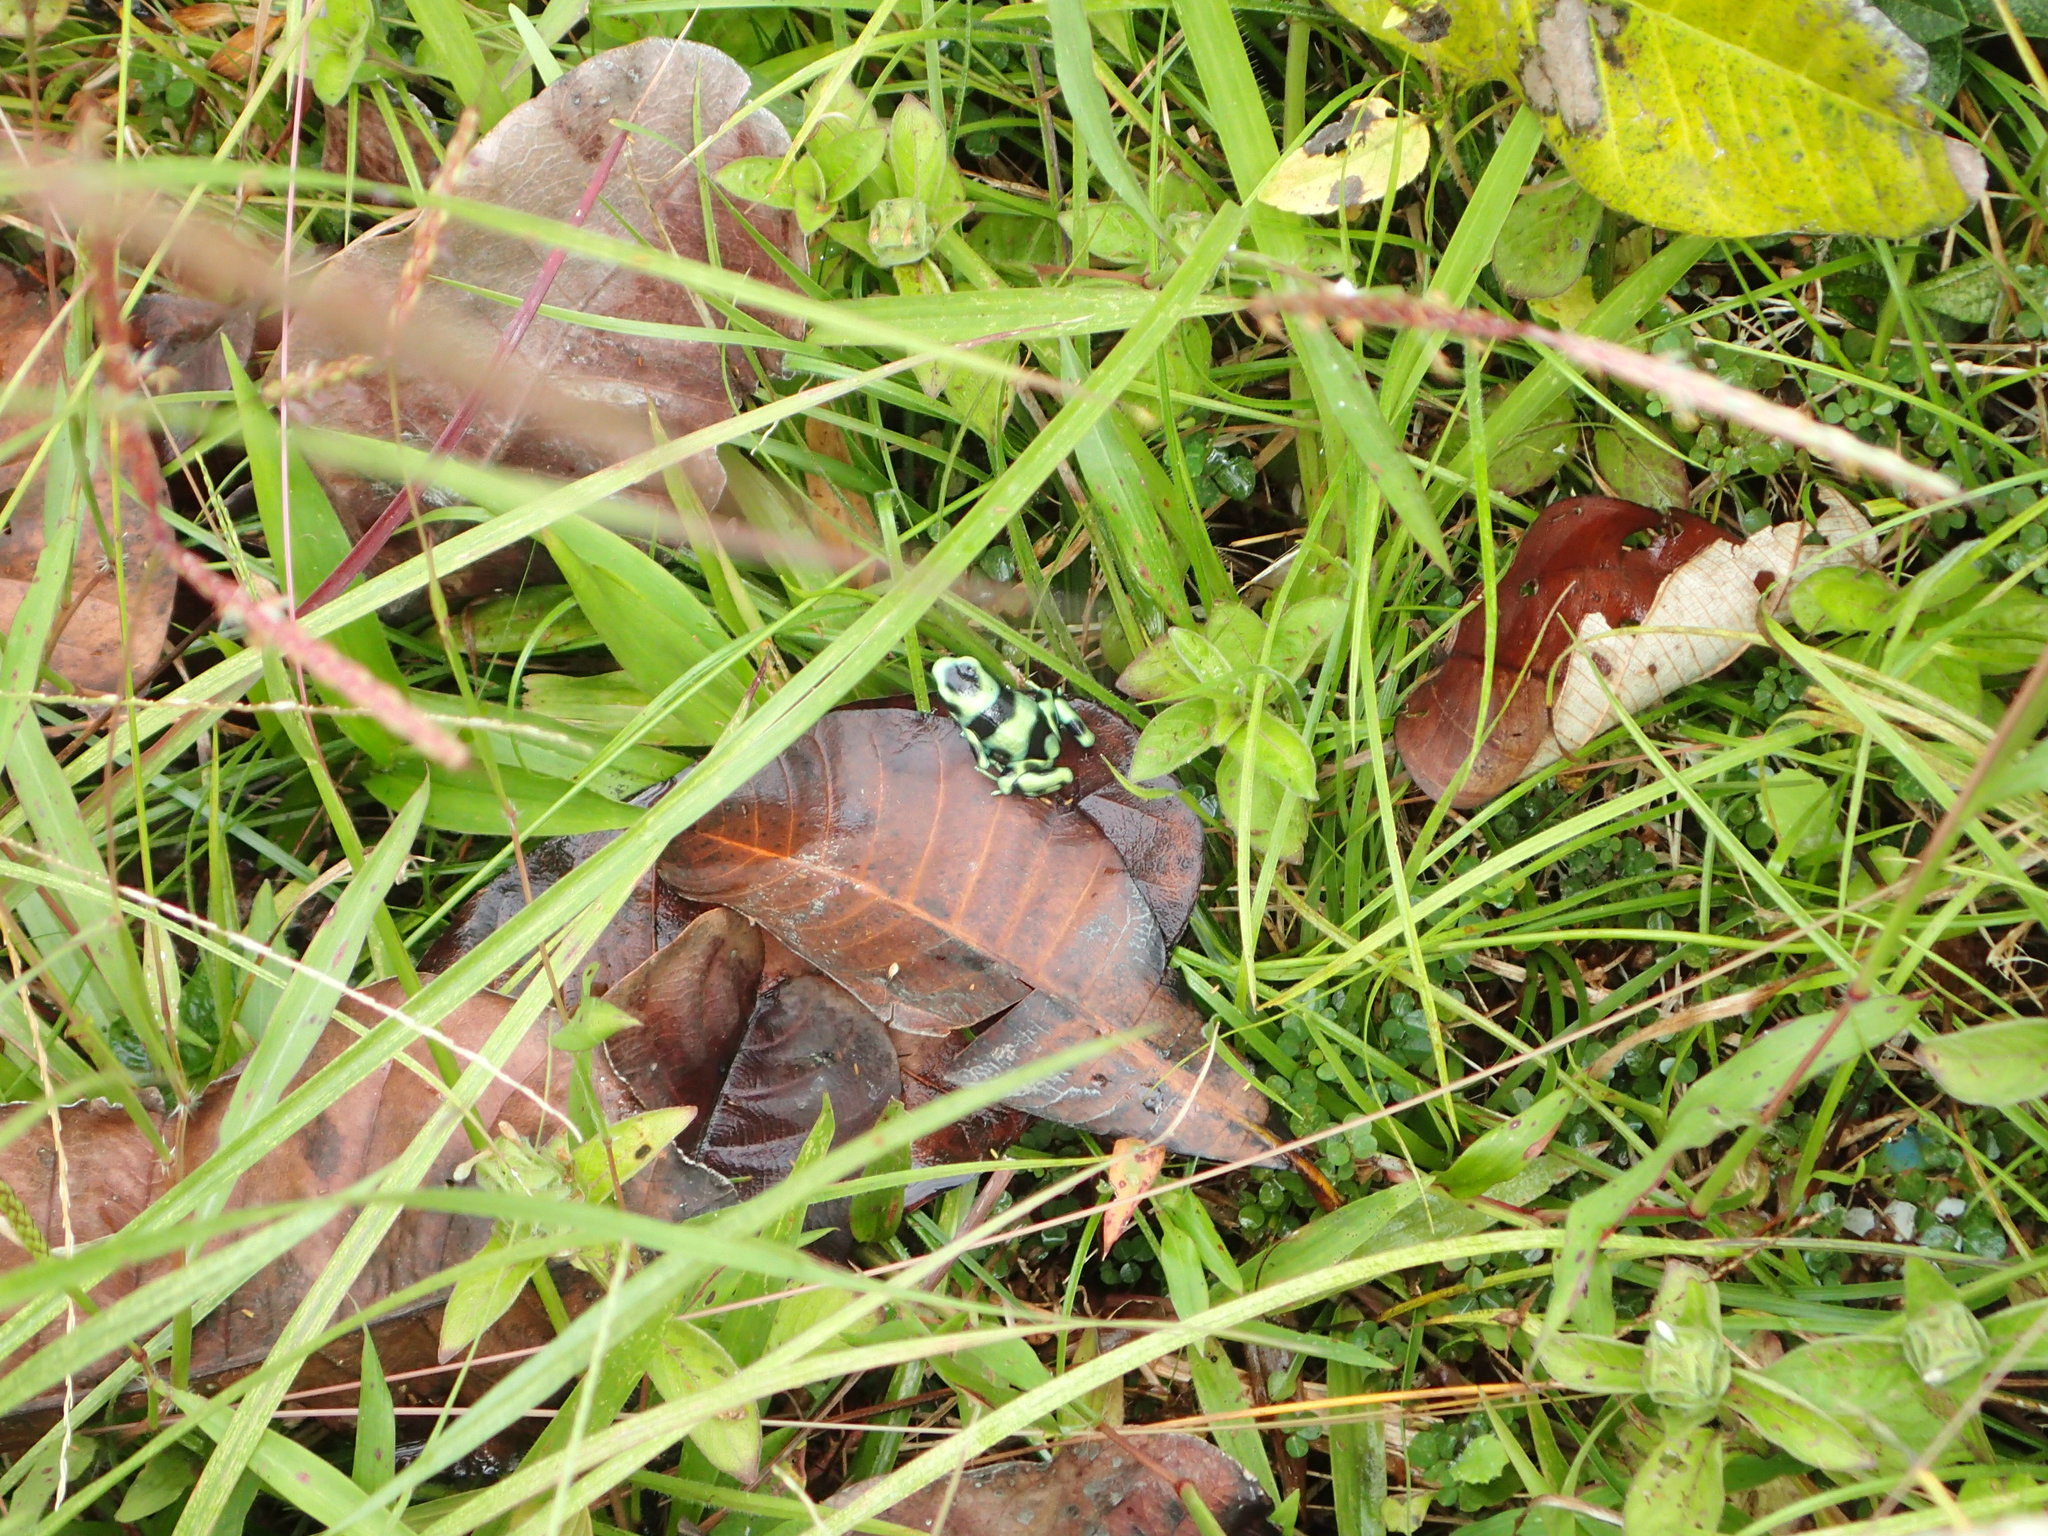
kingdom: Animalia
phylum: Chordata
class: Amphibia
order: Anura
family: Dendrobatidae
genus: Dendrobates
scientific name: Dendrobates auratus
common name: Green and black poison dart frog
